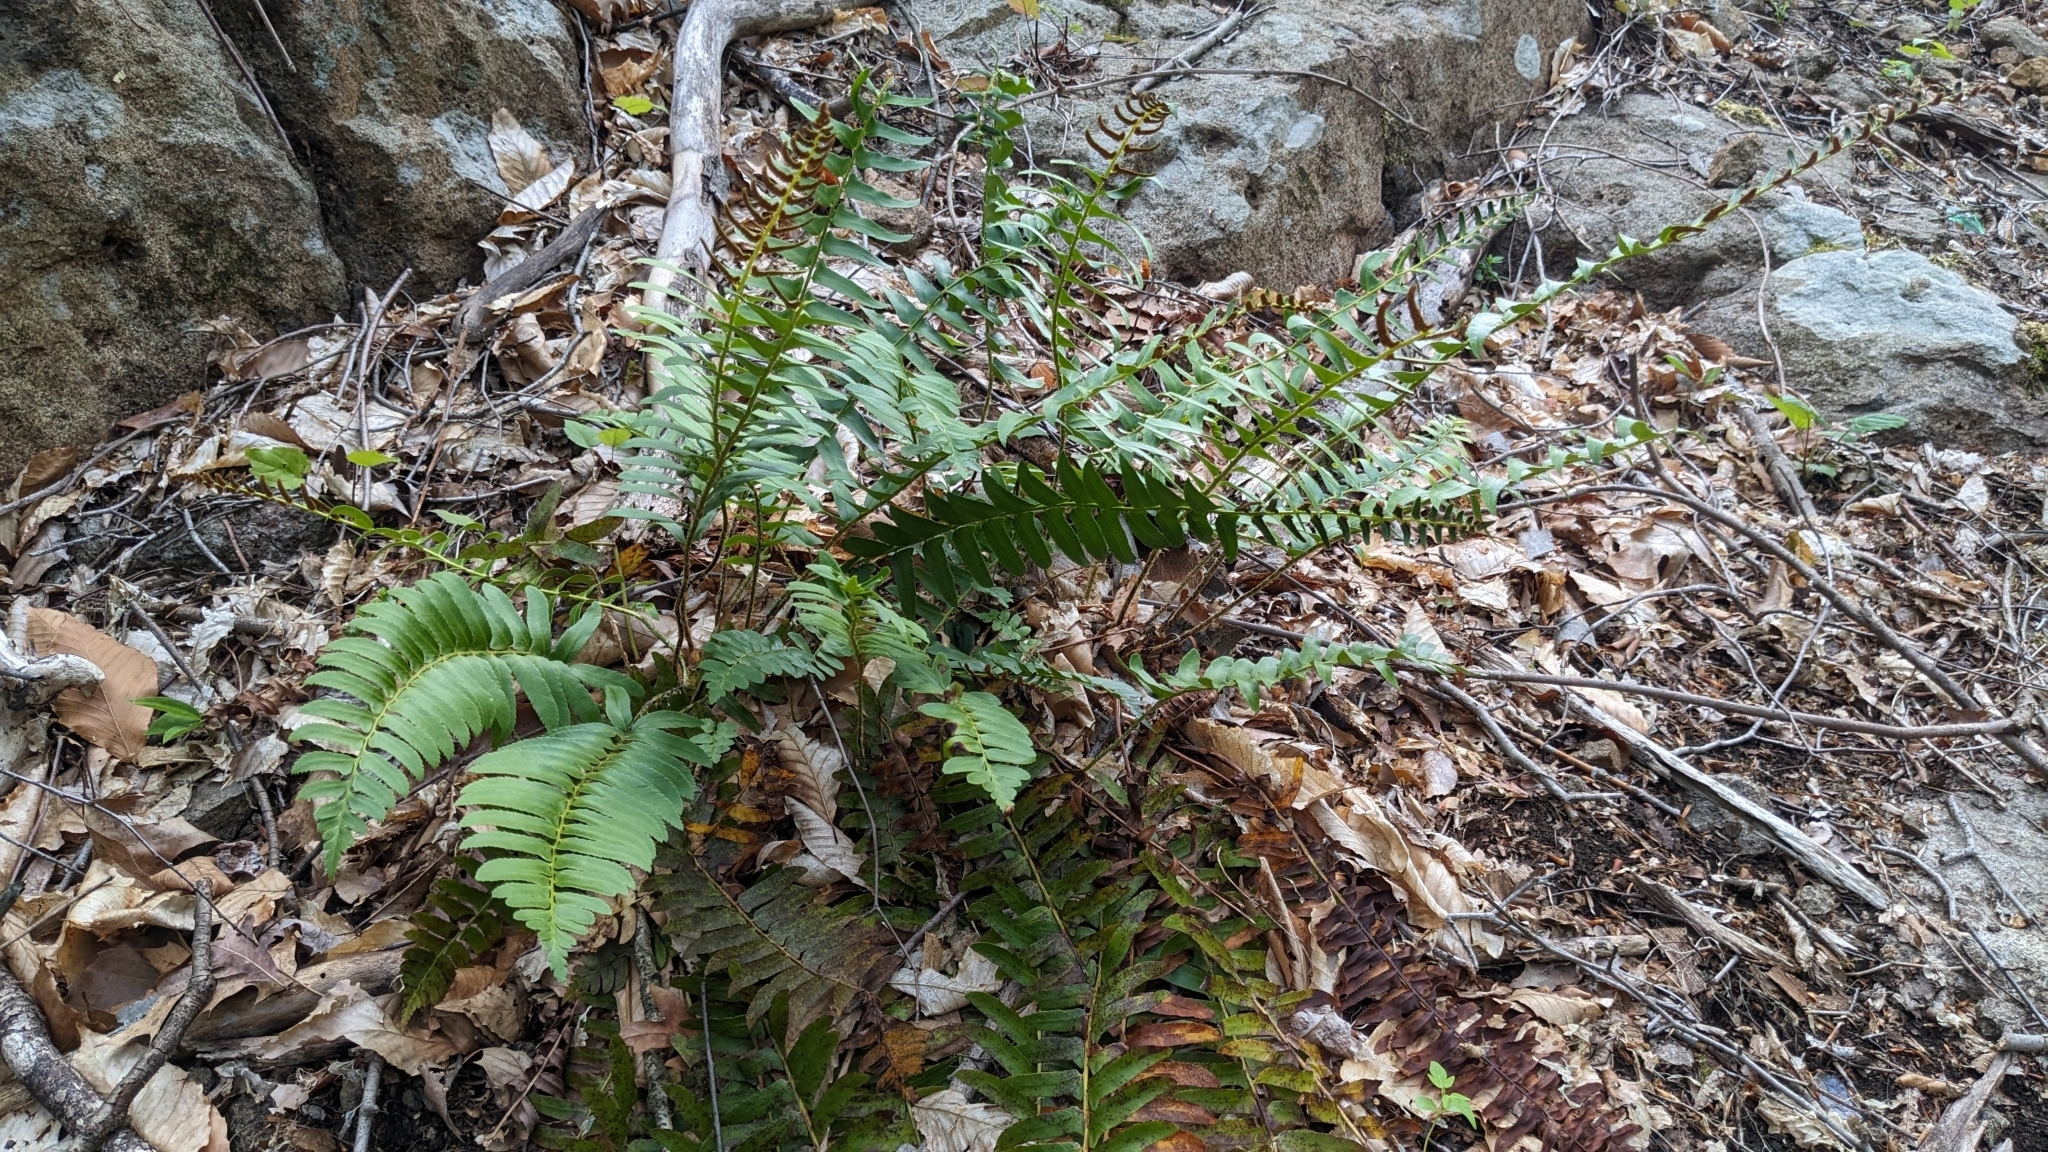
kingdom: Plantae
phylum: Tracheophyta
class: Polypodiopsida
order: Polypodiales
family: Dryopteridaceae
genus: Polystichum
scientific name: Polystichum acrostichoides
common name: Christmas fern
